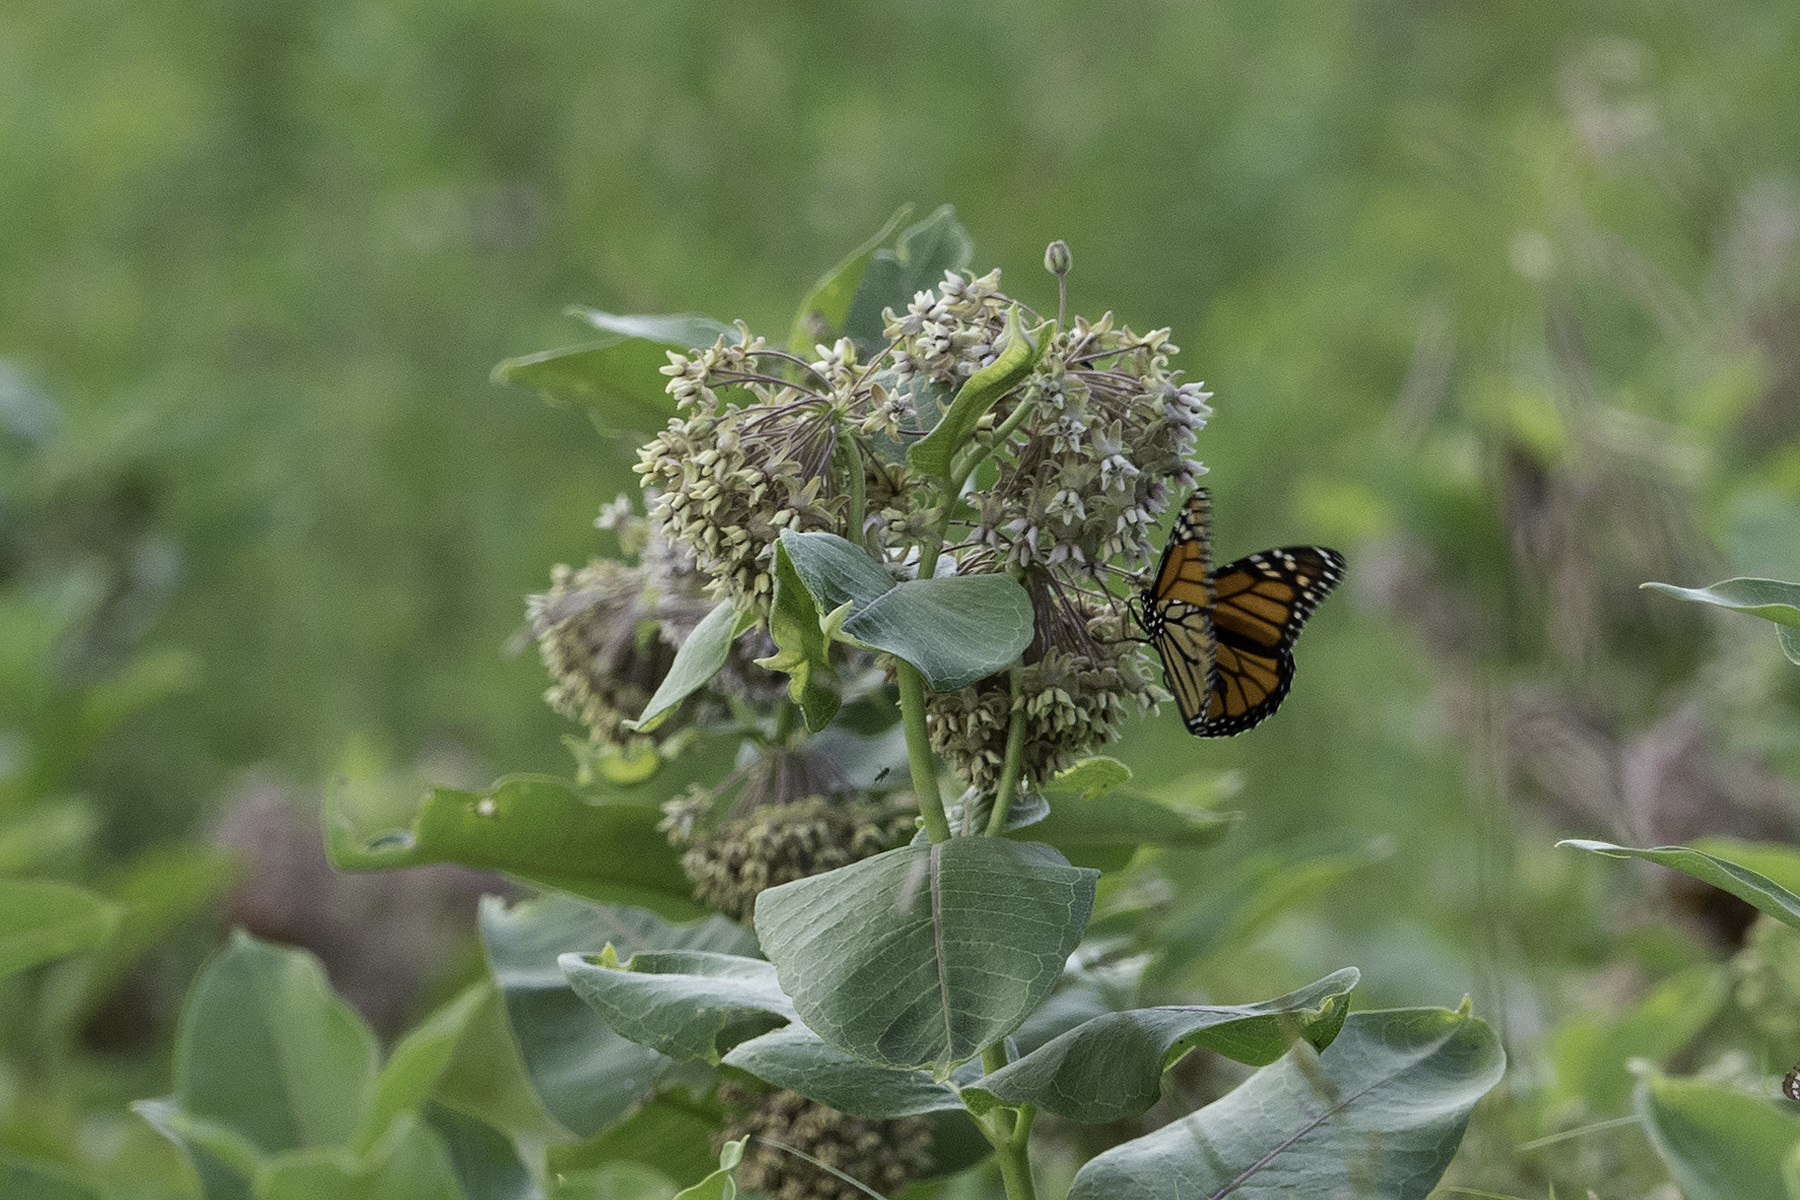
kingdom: Animalia
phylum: Arthropoda
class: Insecta
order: Lepidoptera
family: Nymphalidae
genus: Danaus
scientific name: Danaus plexippus
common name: Monarch
